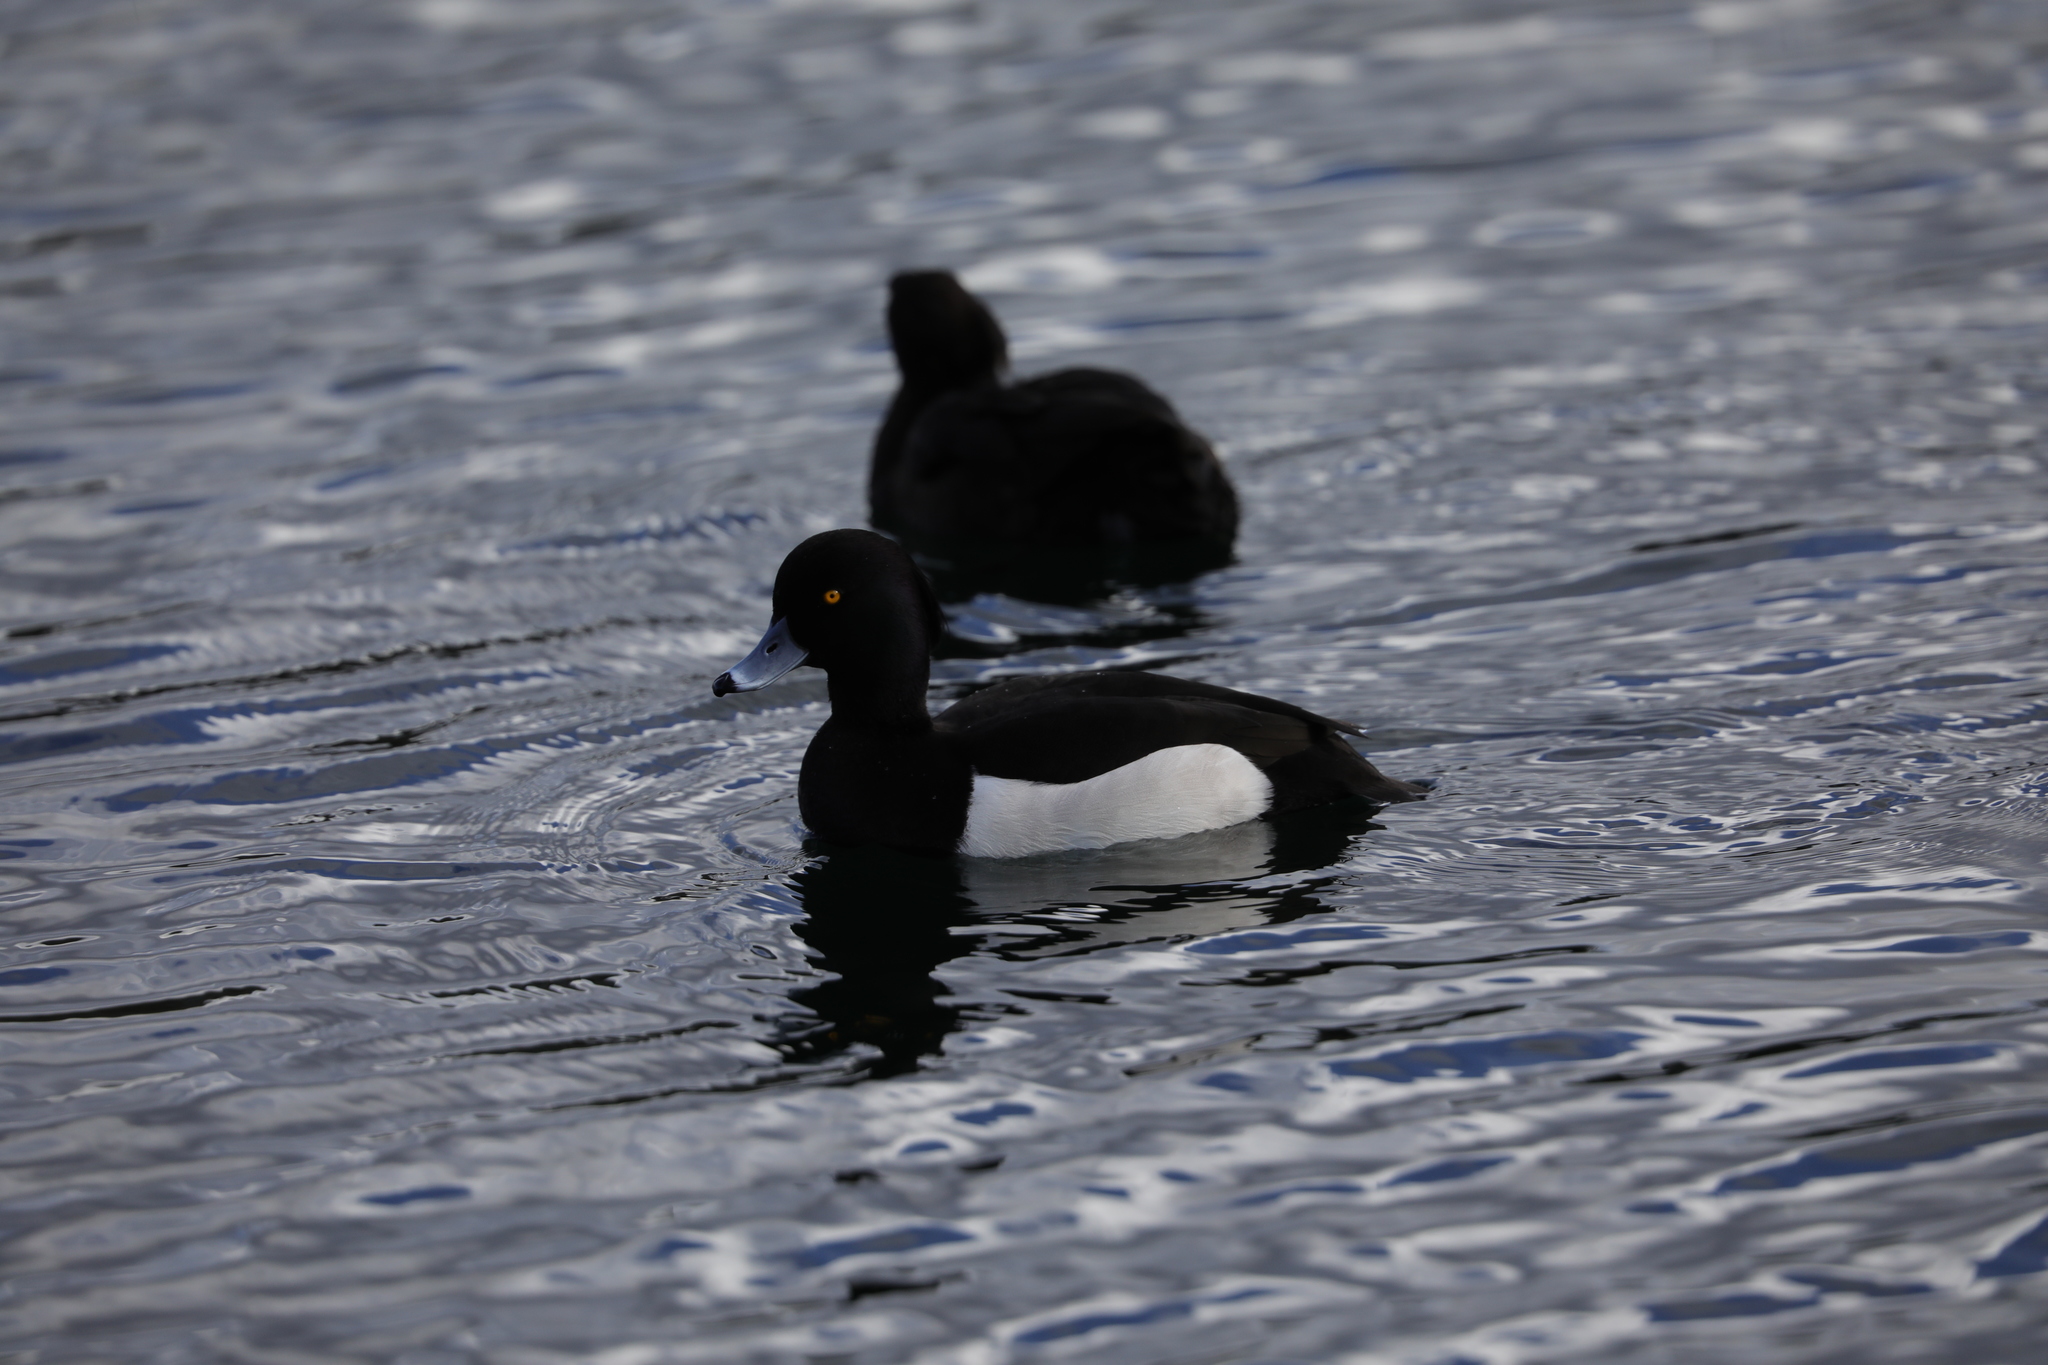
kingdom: Animalia
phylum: Chordata
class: Aves
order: Anseriformes
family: Anatidae
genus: Aythya
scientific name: Aythya fuligula
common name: Tufted duck
